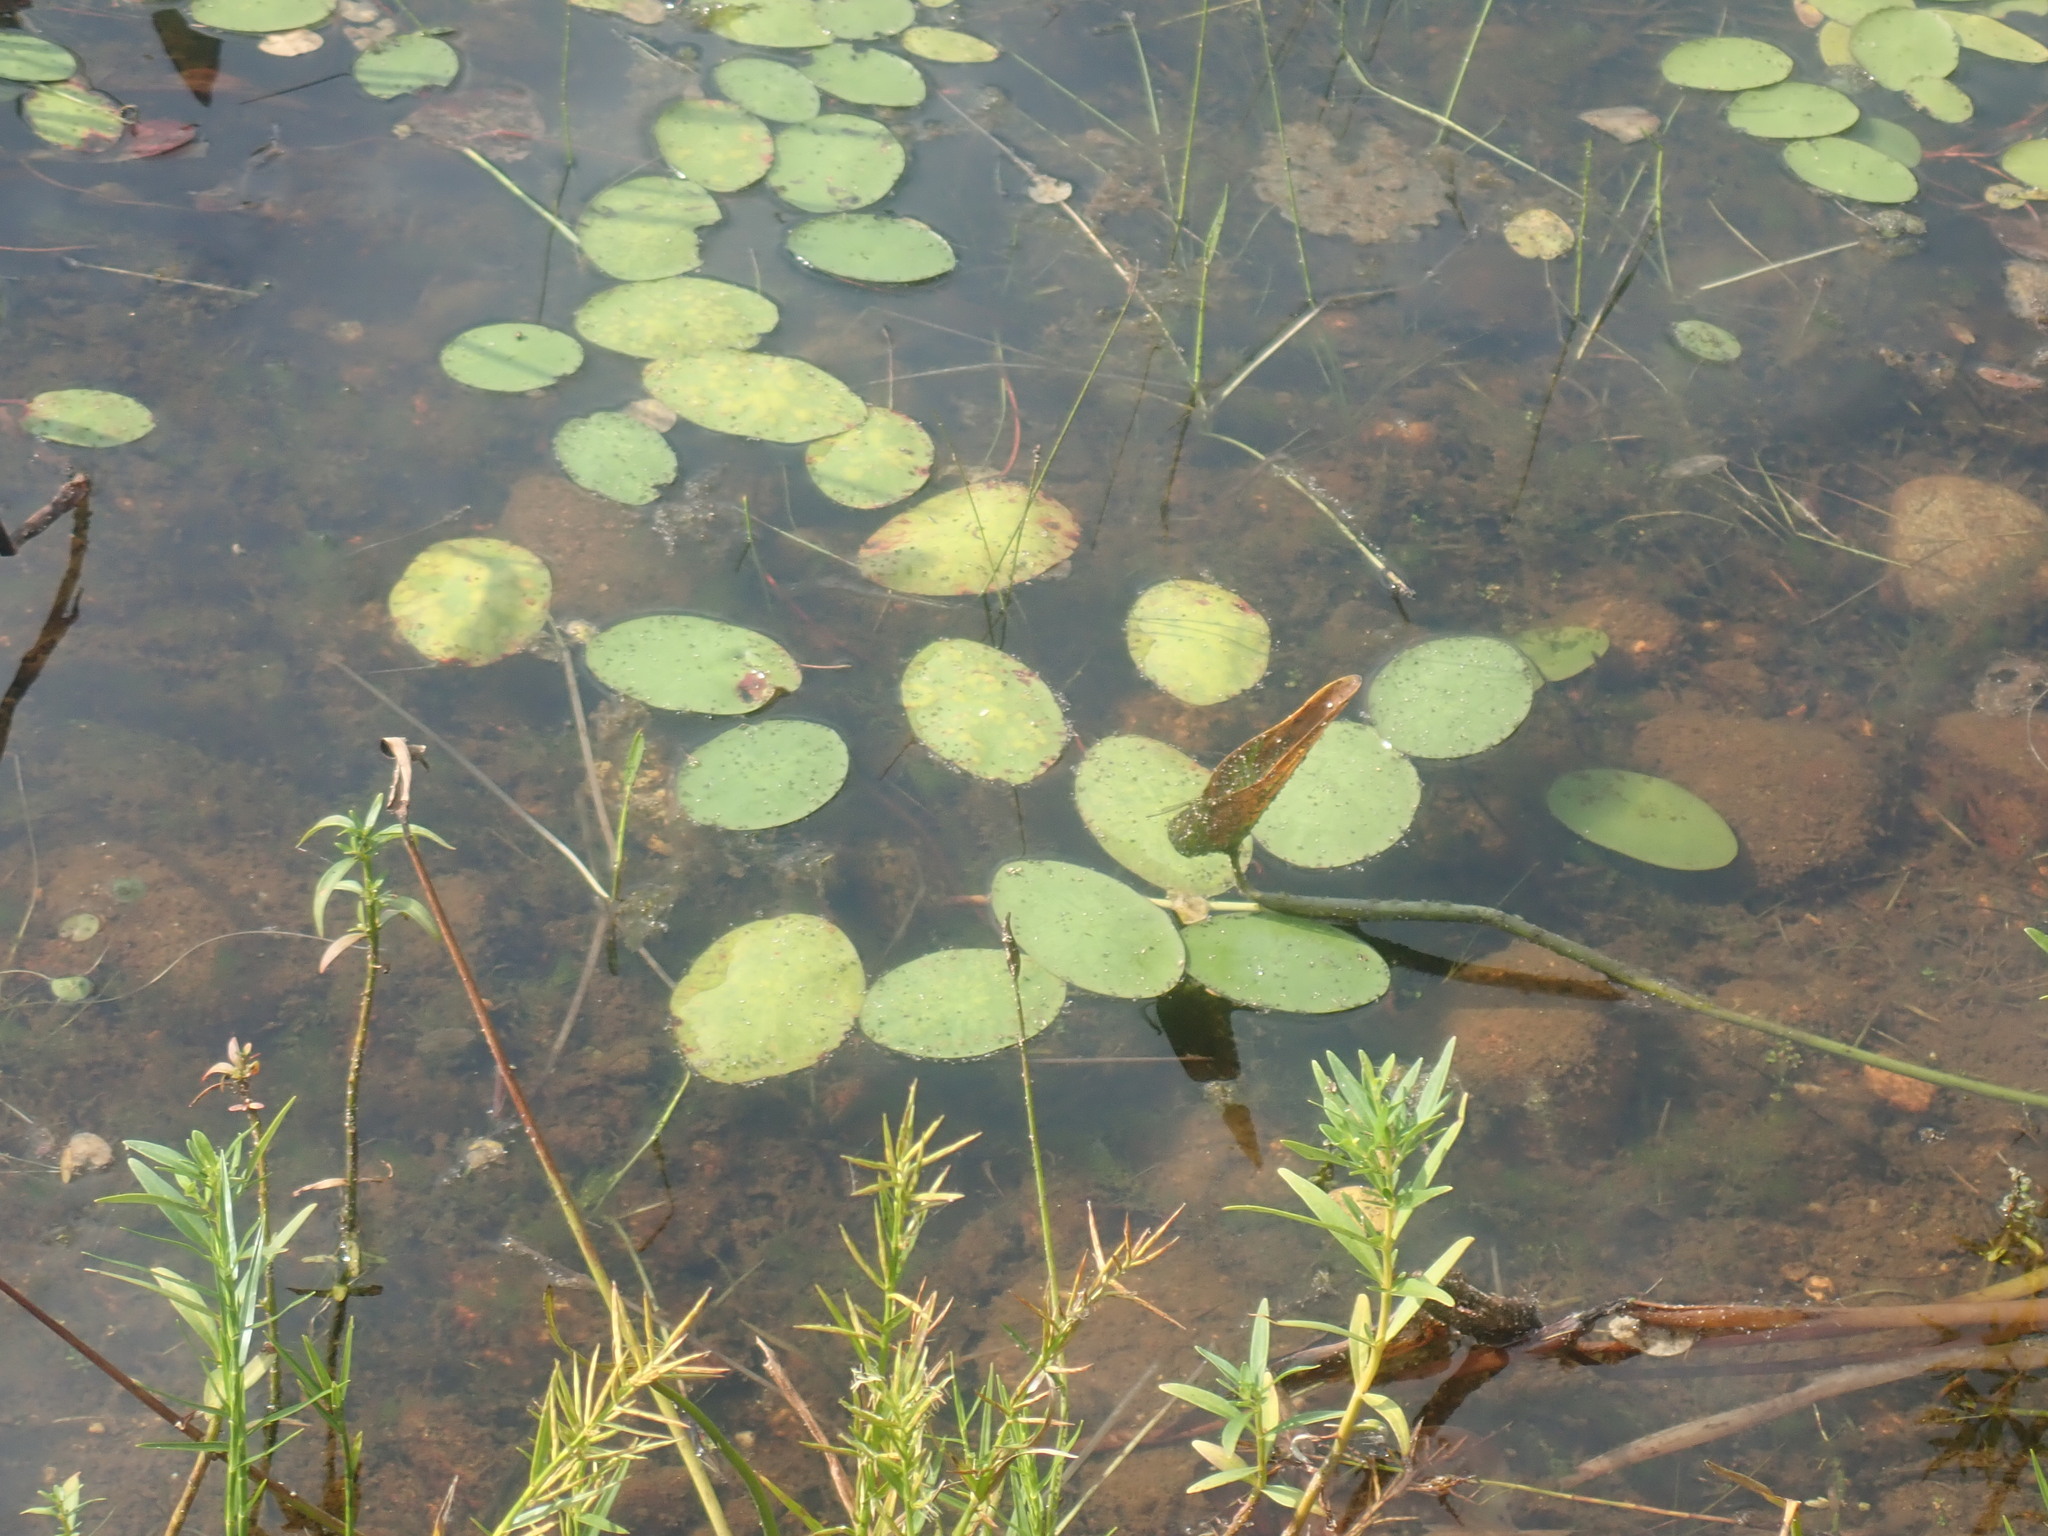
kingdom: Plantae
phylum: Tracheophyta
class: Magnoliopsida
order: Nymphaeales
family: Cabombaceae
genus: Brasenia
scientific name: Brasenia schreberi
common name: Water-shield
